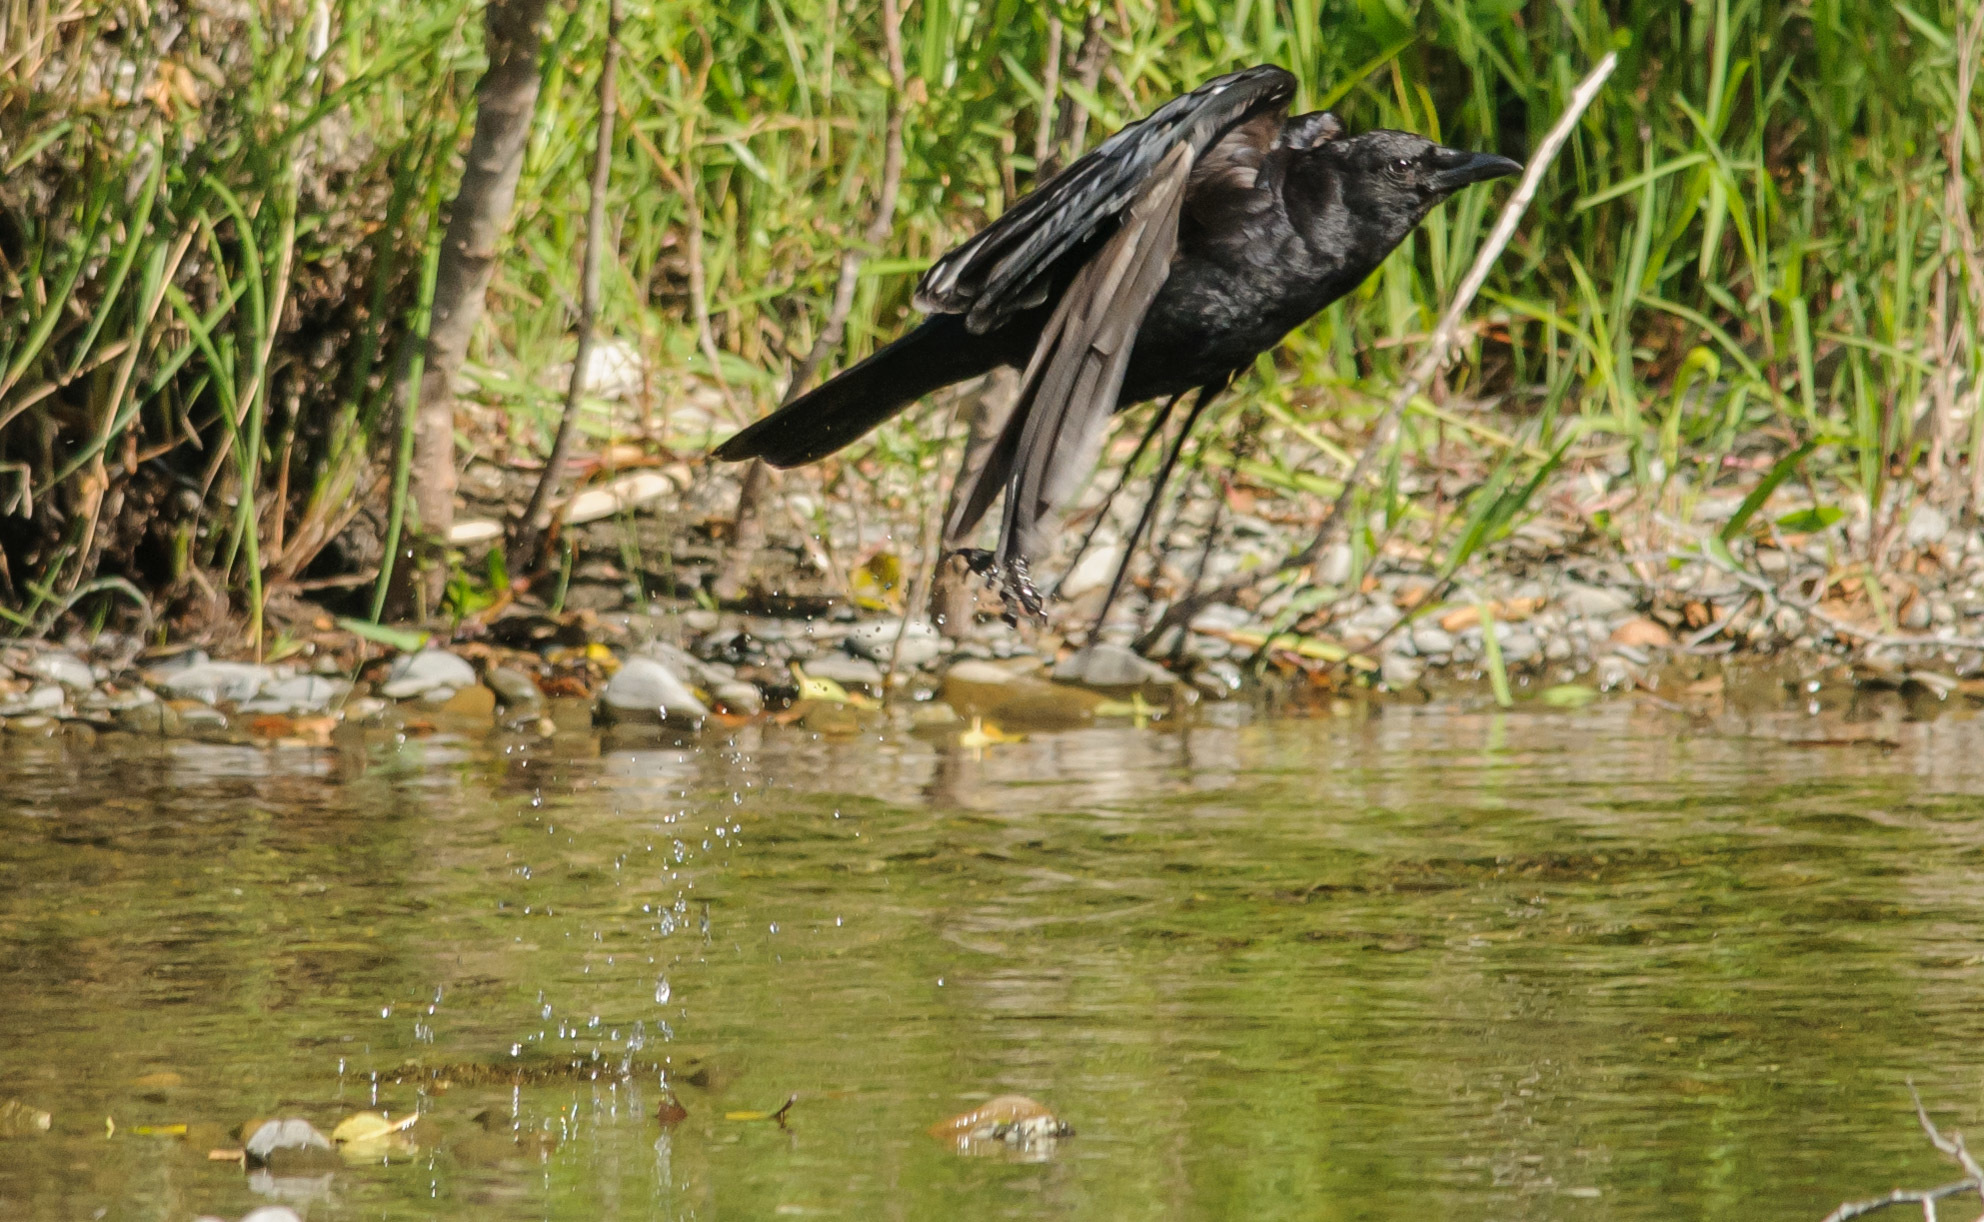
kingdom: Animalia
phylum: Chordata
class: Aves
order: Passeriformes
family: Corvidae
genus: Corvus
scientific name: Corvus brachyrhynchos
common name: American crow
